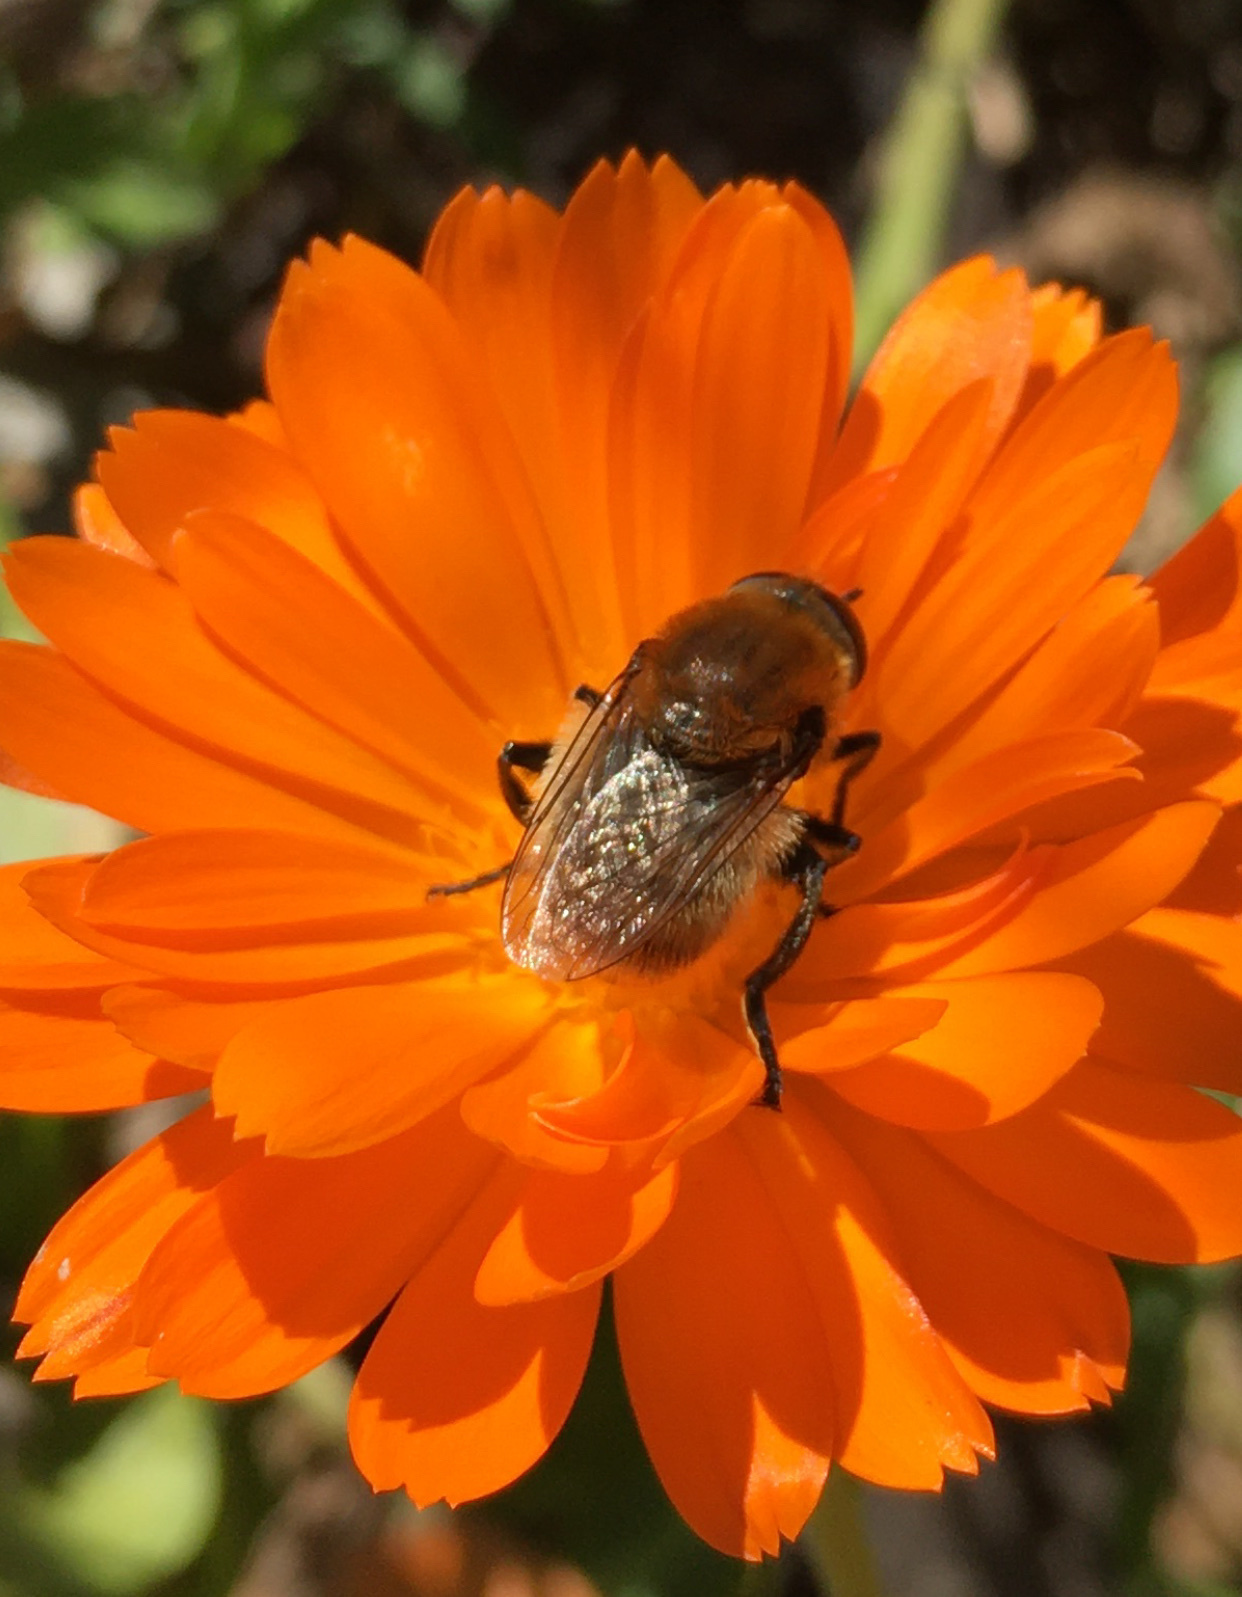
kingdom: Animalia
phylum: Arthropoda
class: Insecta
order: Diptera
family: Syrphidae
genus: Merodon
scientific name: Merodon equestris
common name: Greater bulb-fly
